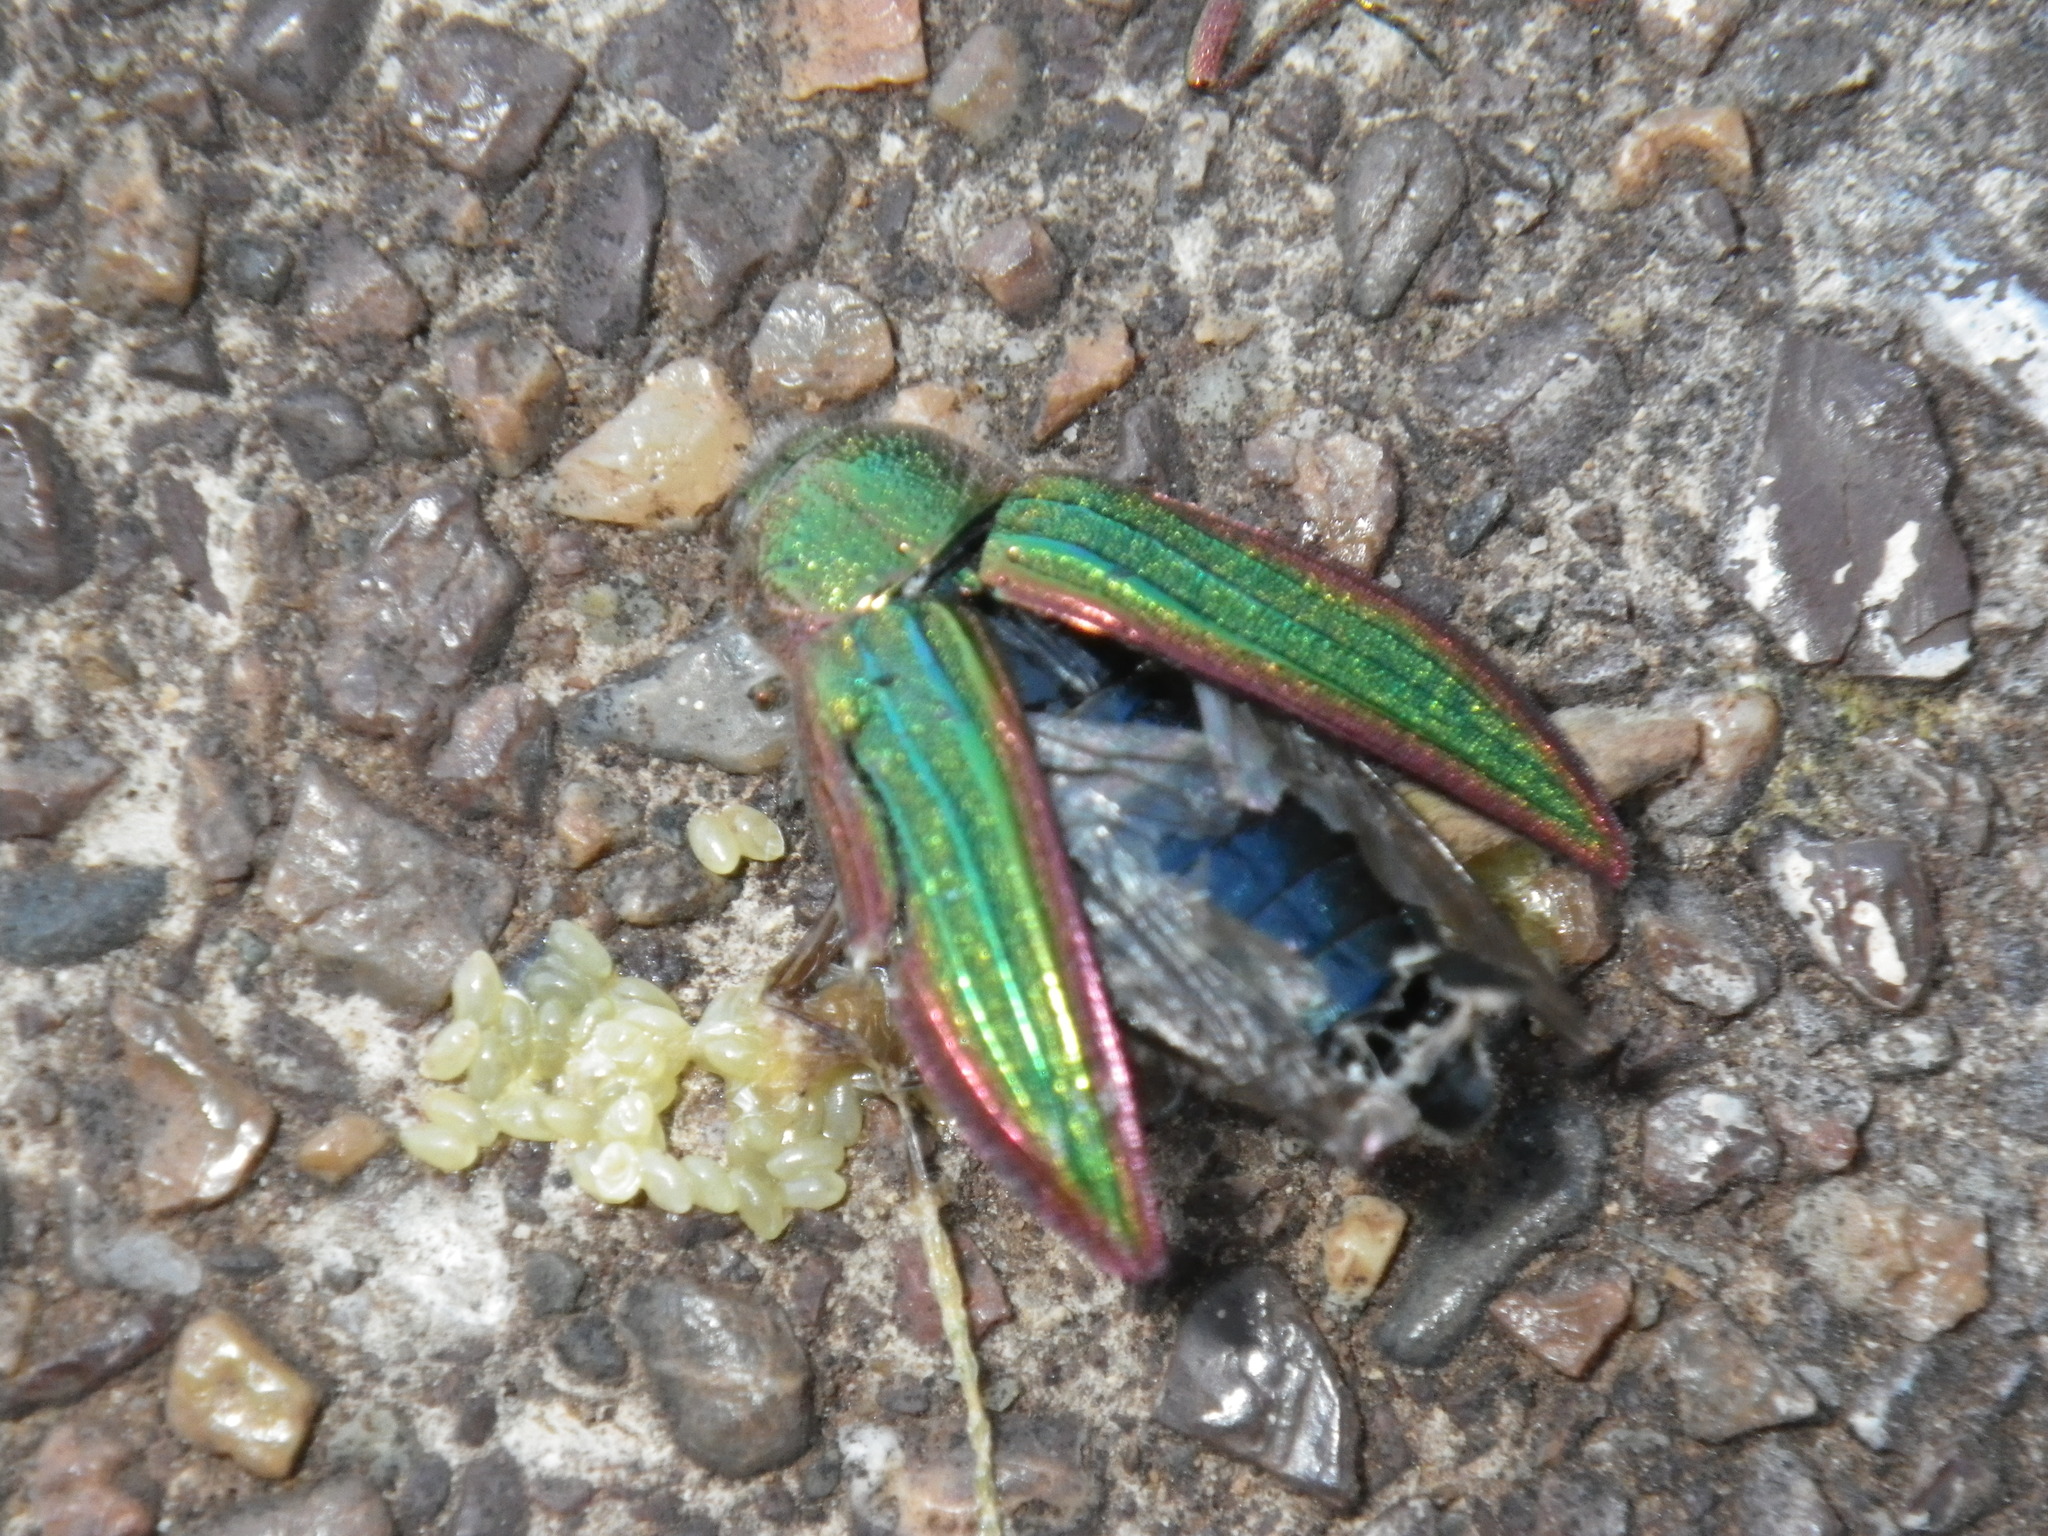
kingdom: Animalia
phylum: Arthropoda
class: Insecta
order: Coleoptera
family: Buprestidae
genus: Buprestis
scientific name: Buprestis aurulenta
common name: Golden buprestid
